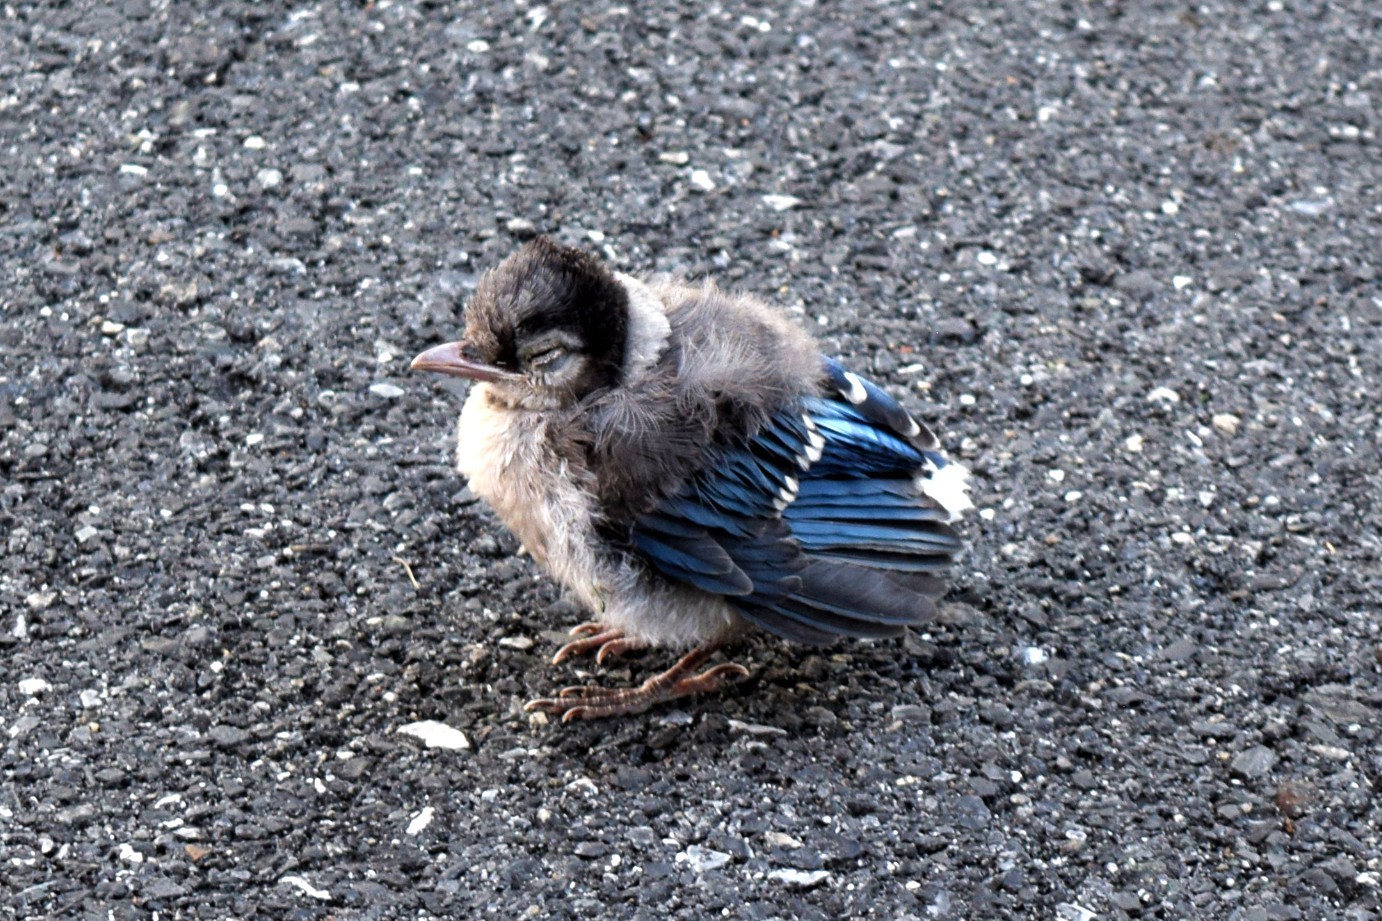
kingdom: Animalia
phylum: Chordata
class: Aves
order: Passeriformes
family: Corvidae
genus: Cyanocitta
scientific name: Cyanocitta cristata
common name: Blue jay
